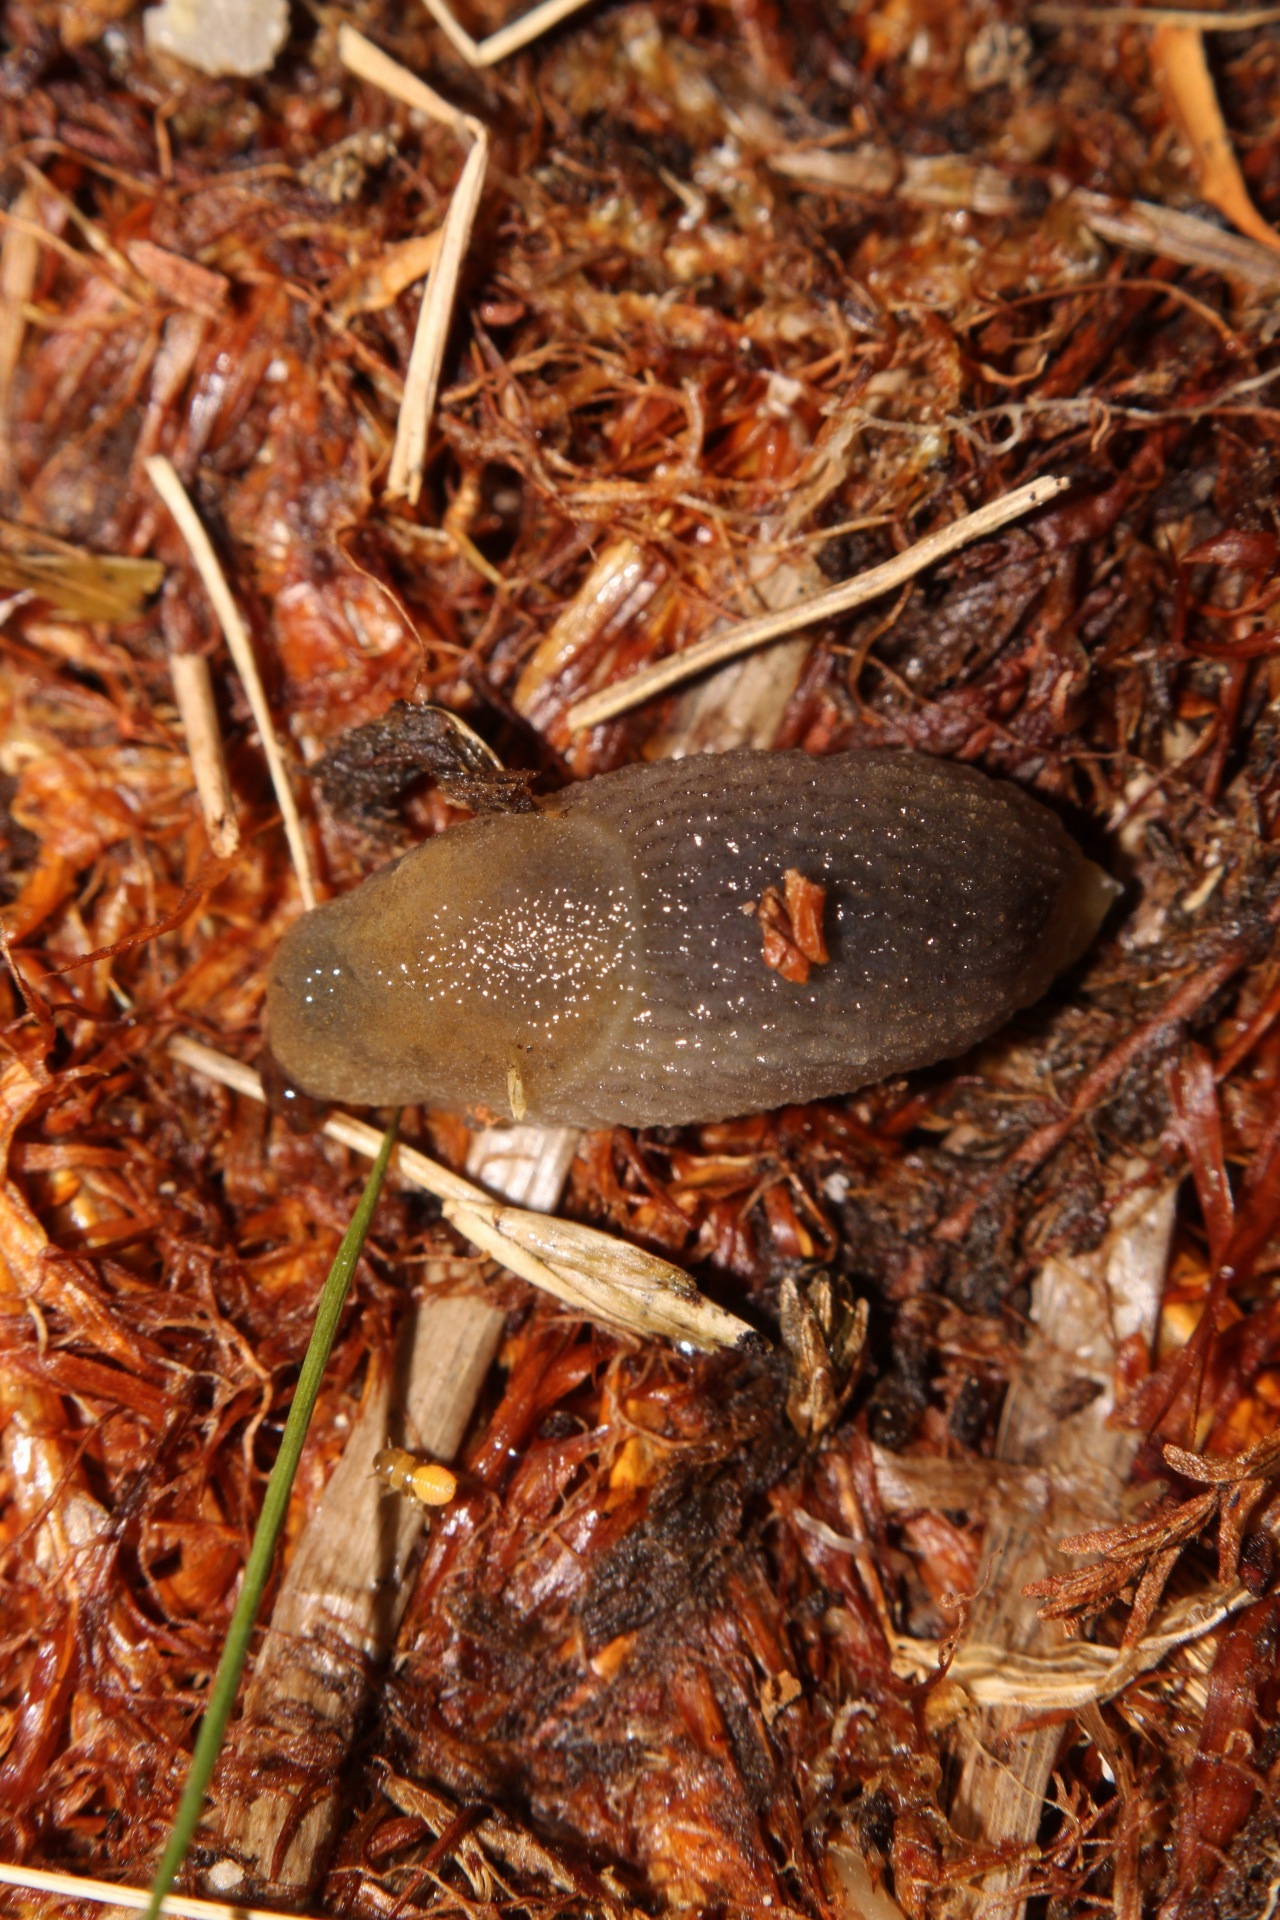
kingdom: Animalia
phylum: Mollusca
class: Gastropoda
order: Stylommatophora
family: Arionidae
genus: Arion
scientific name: Arion intermedius
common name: Hedgehog slug
